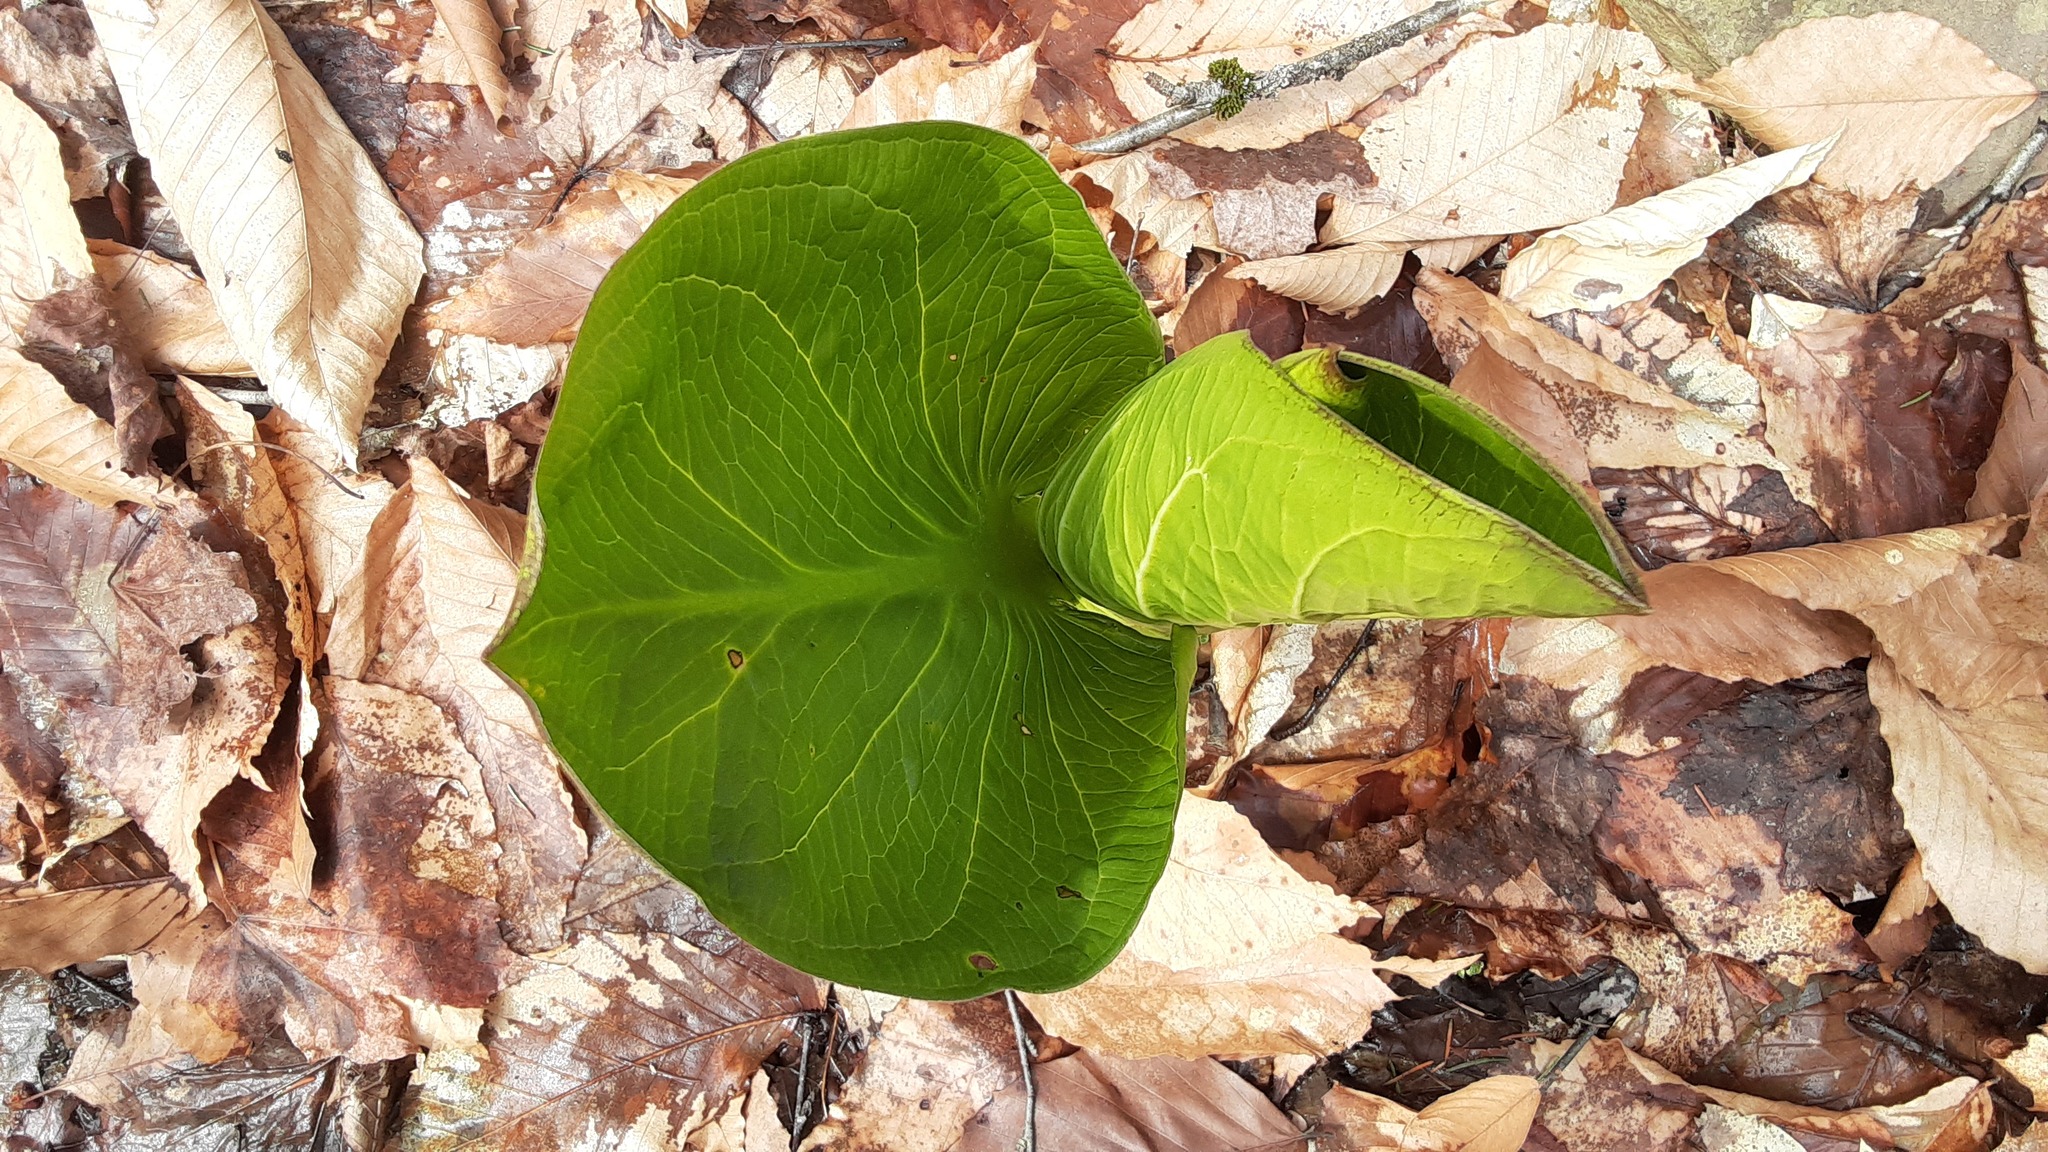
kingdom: Plantae
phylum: Tracheophyta
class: Liliopsida
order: Alismatales
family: Araceae
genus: Symplocarpus
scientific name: Symplocarpus foetidus
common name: Eastern skunk cabbage
